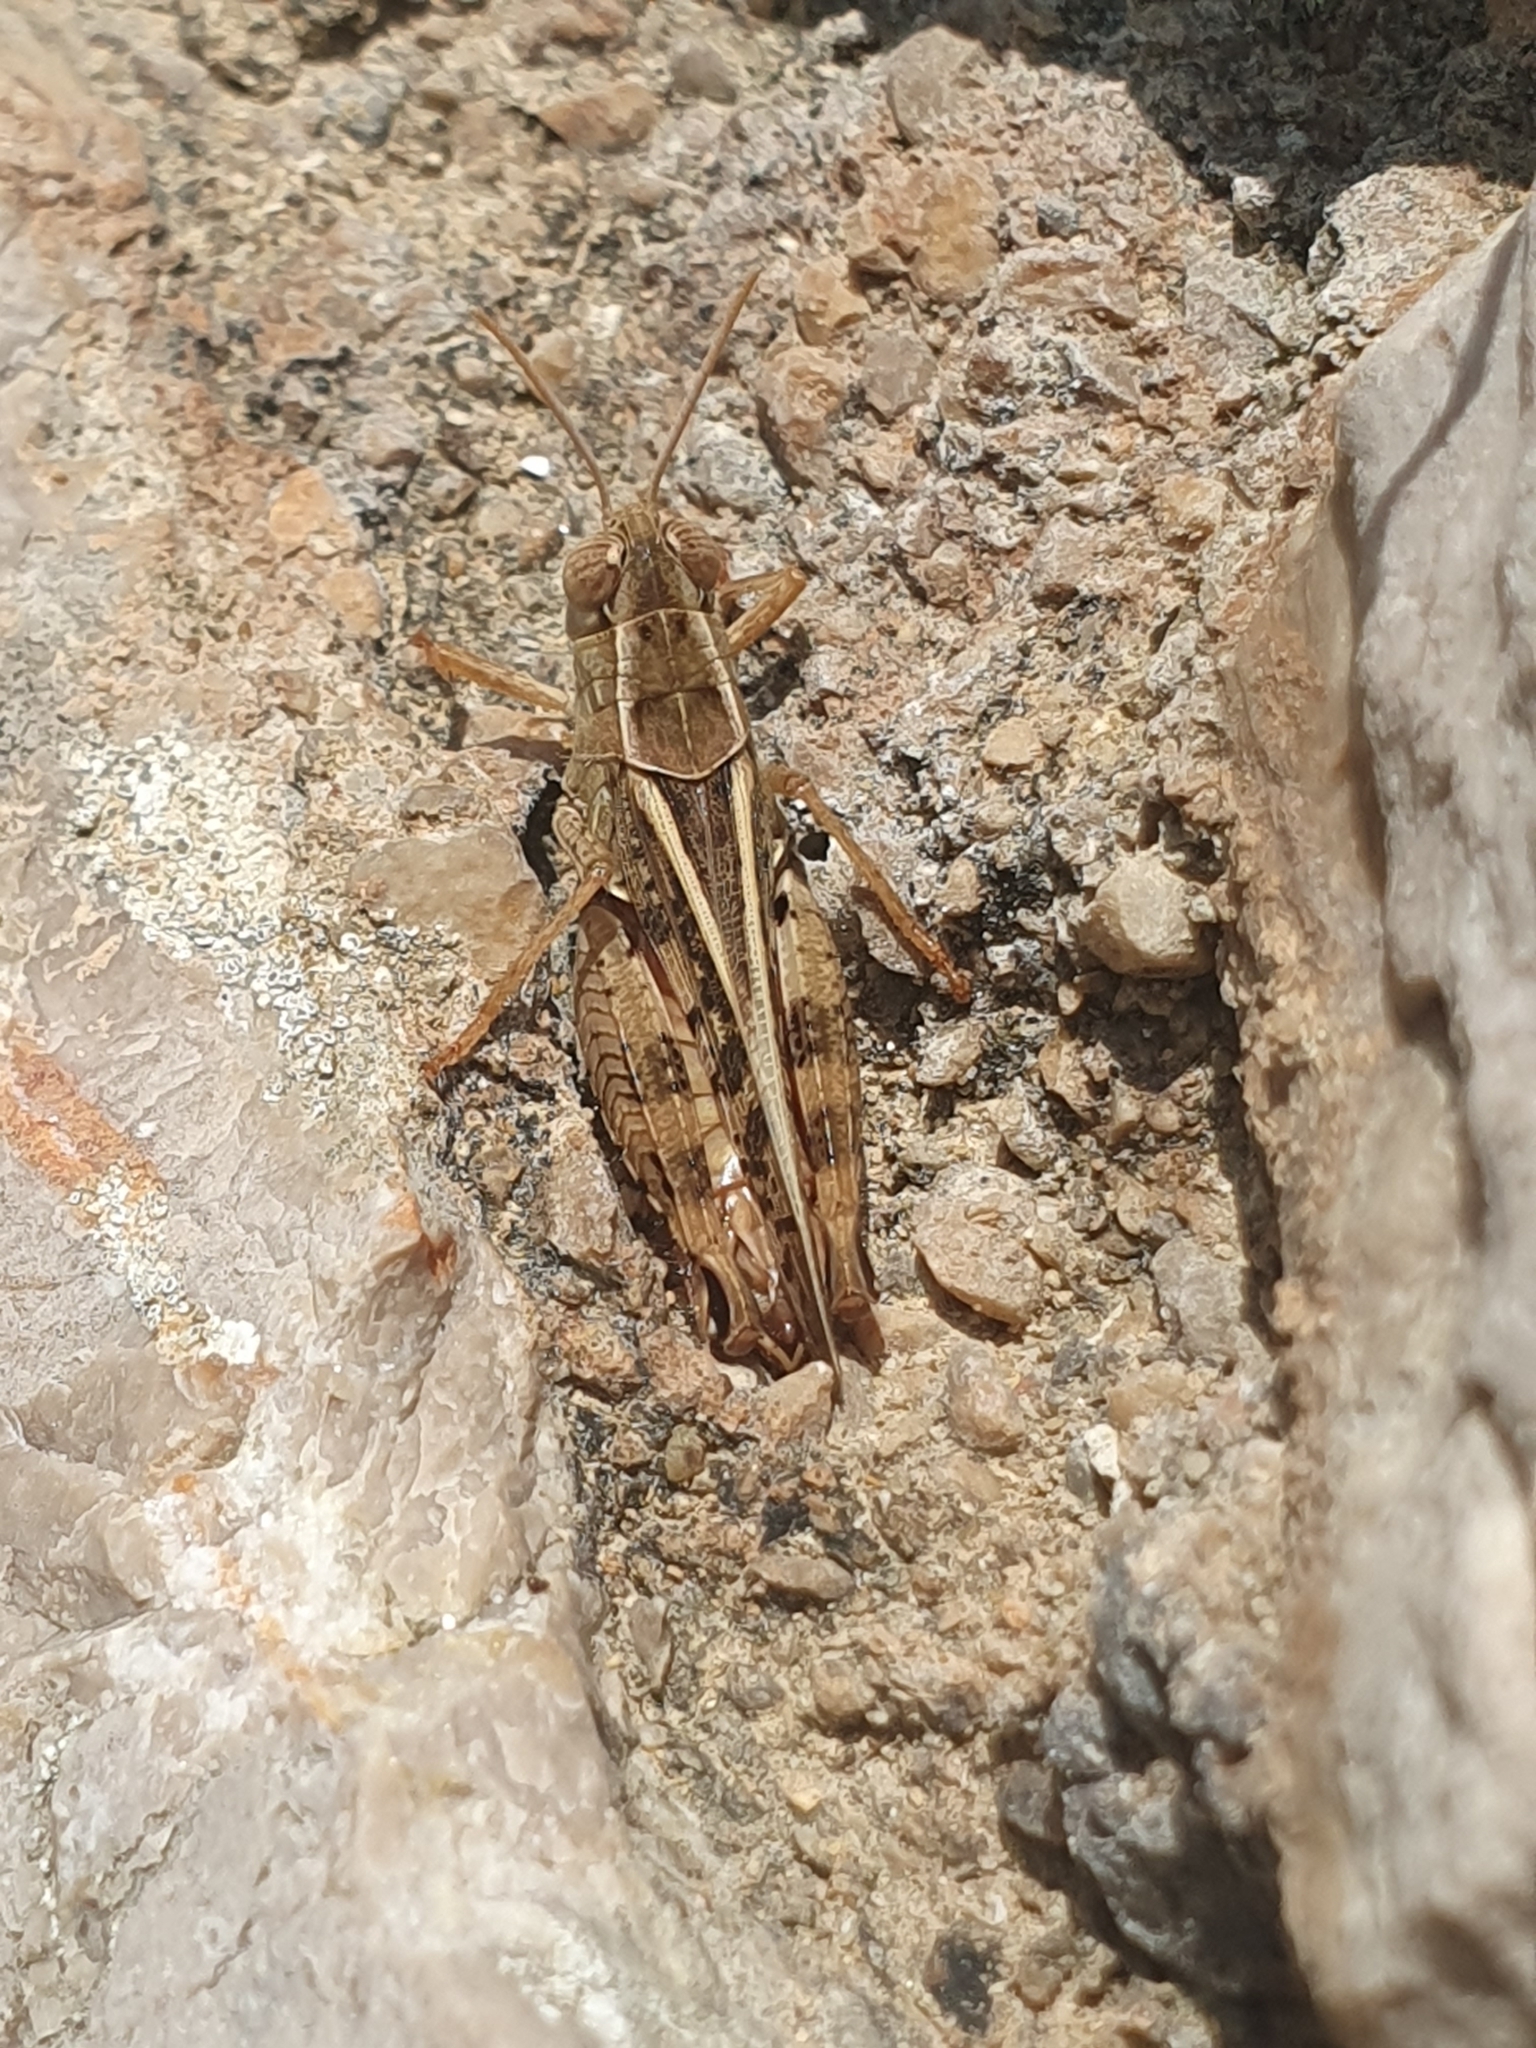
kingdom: Animalia
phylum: Arthropoda
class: Insecta
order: Orthoptera
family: Acrididae
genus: Calliptamus
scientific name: Calliptamus italicus
